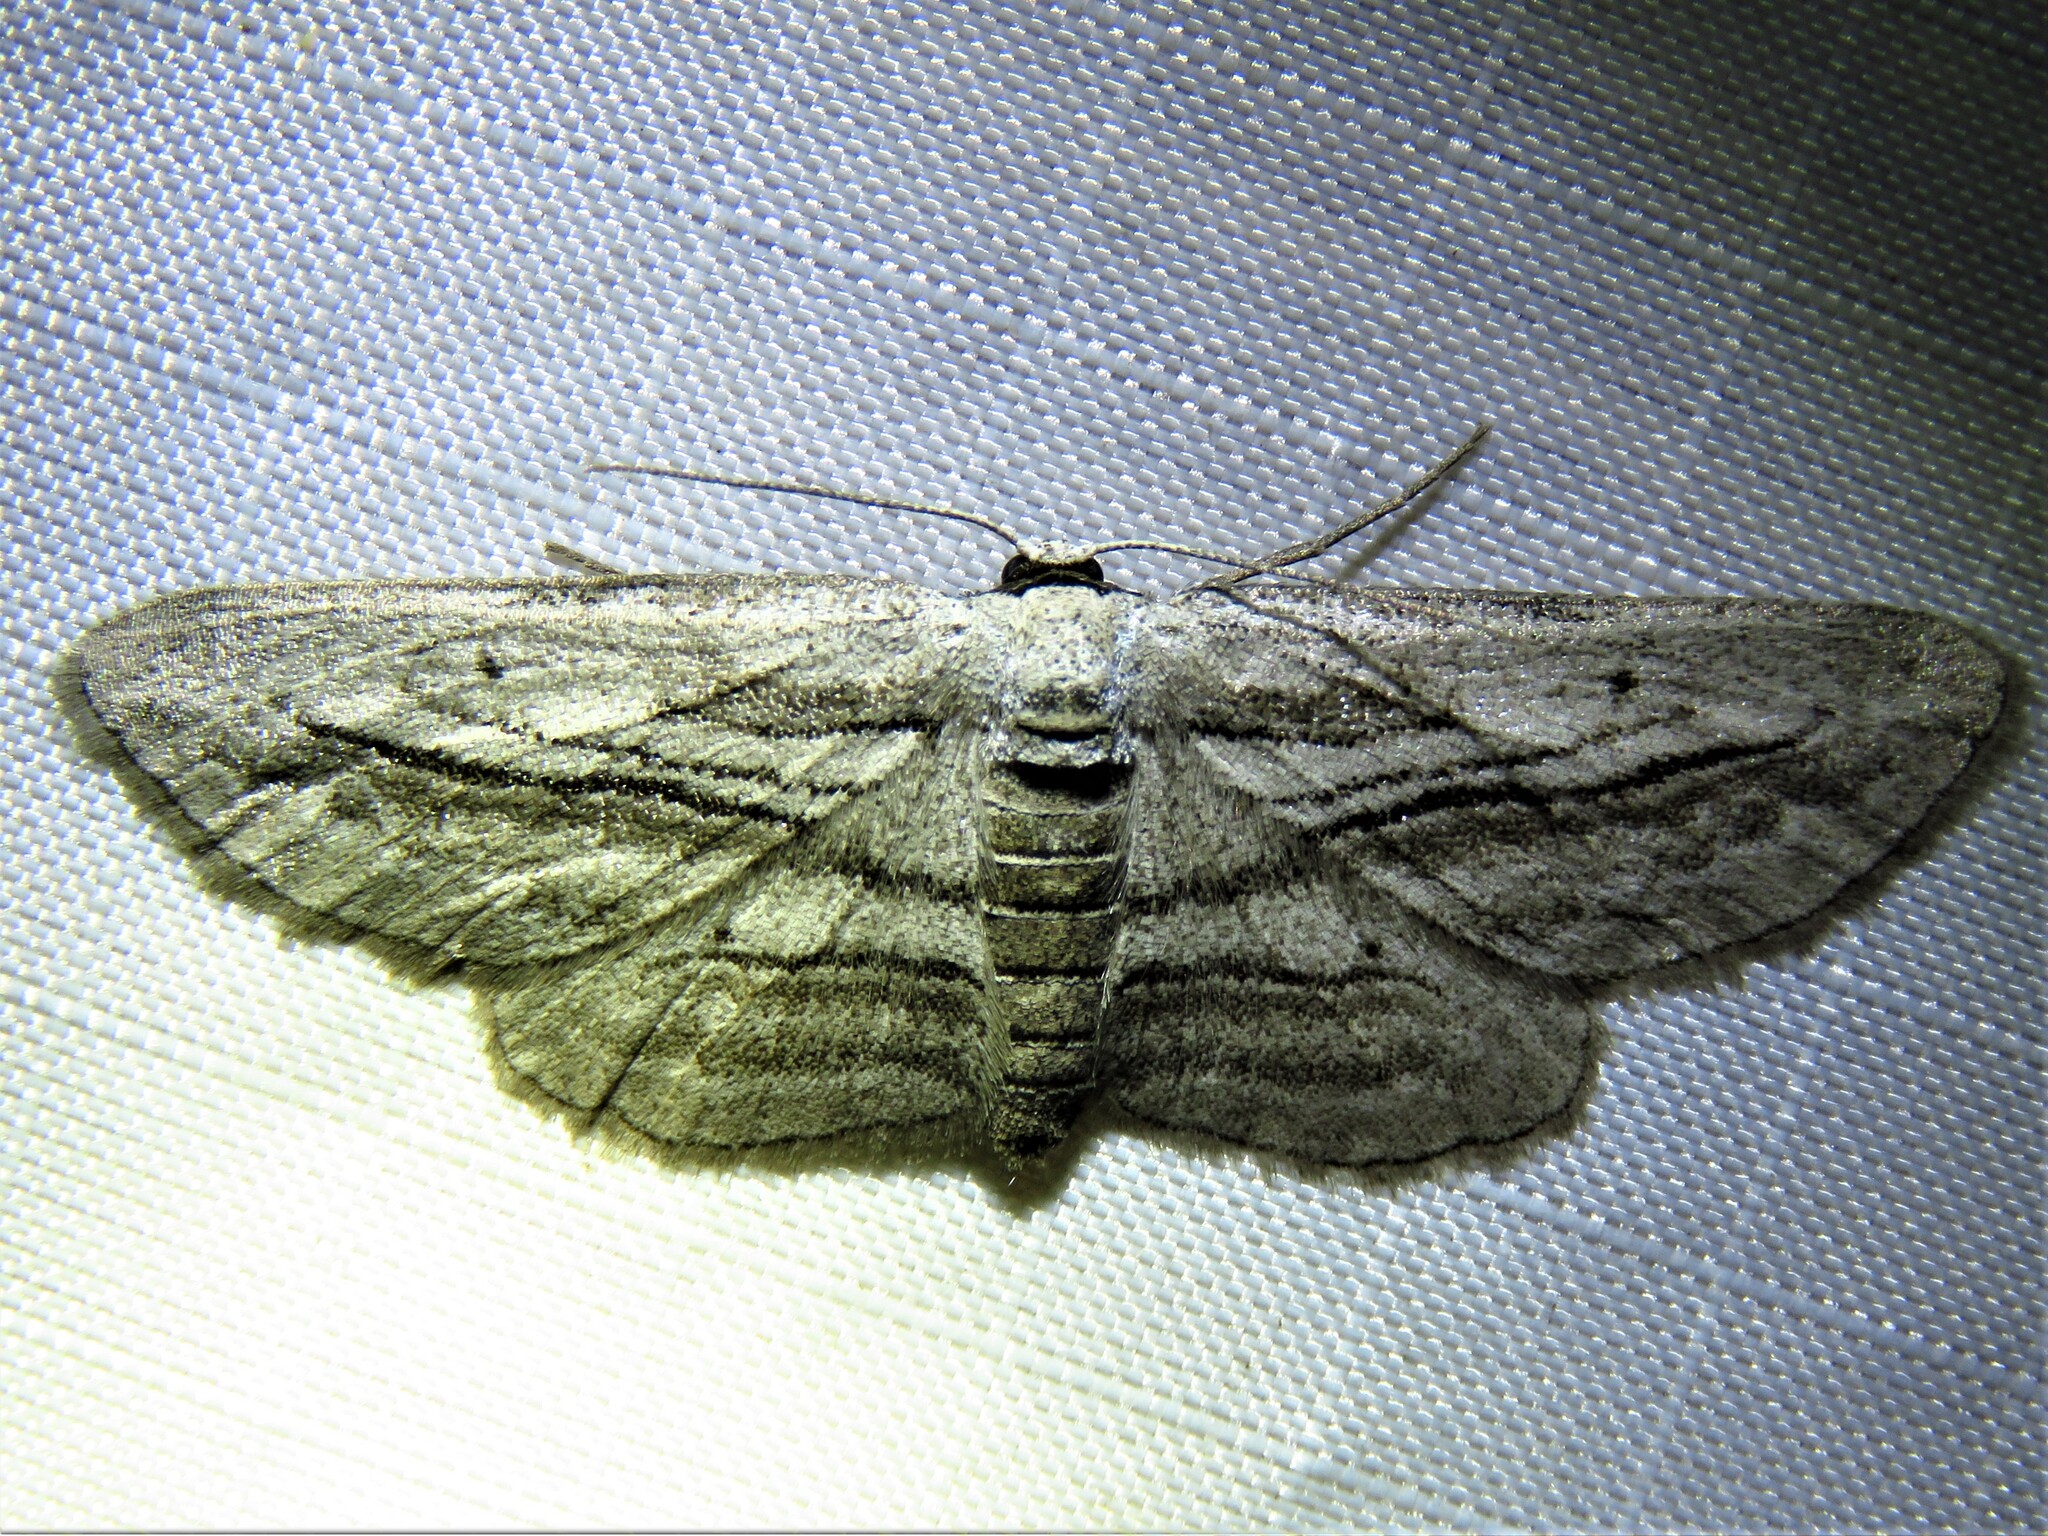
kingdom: Animalia
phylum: Arthropoda
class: Insecta
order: Lepidoptera
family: Geometridae
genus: Glena
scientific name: Glena quinquelinearia
